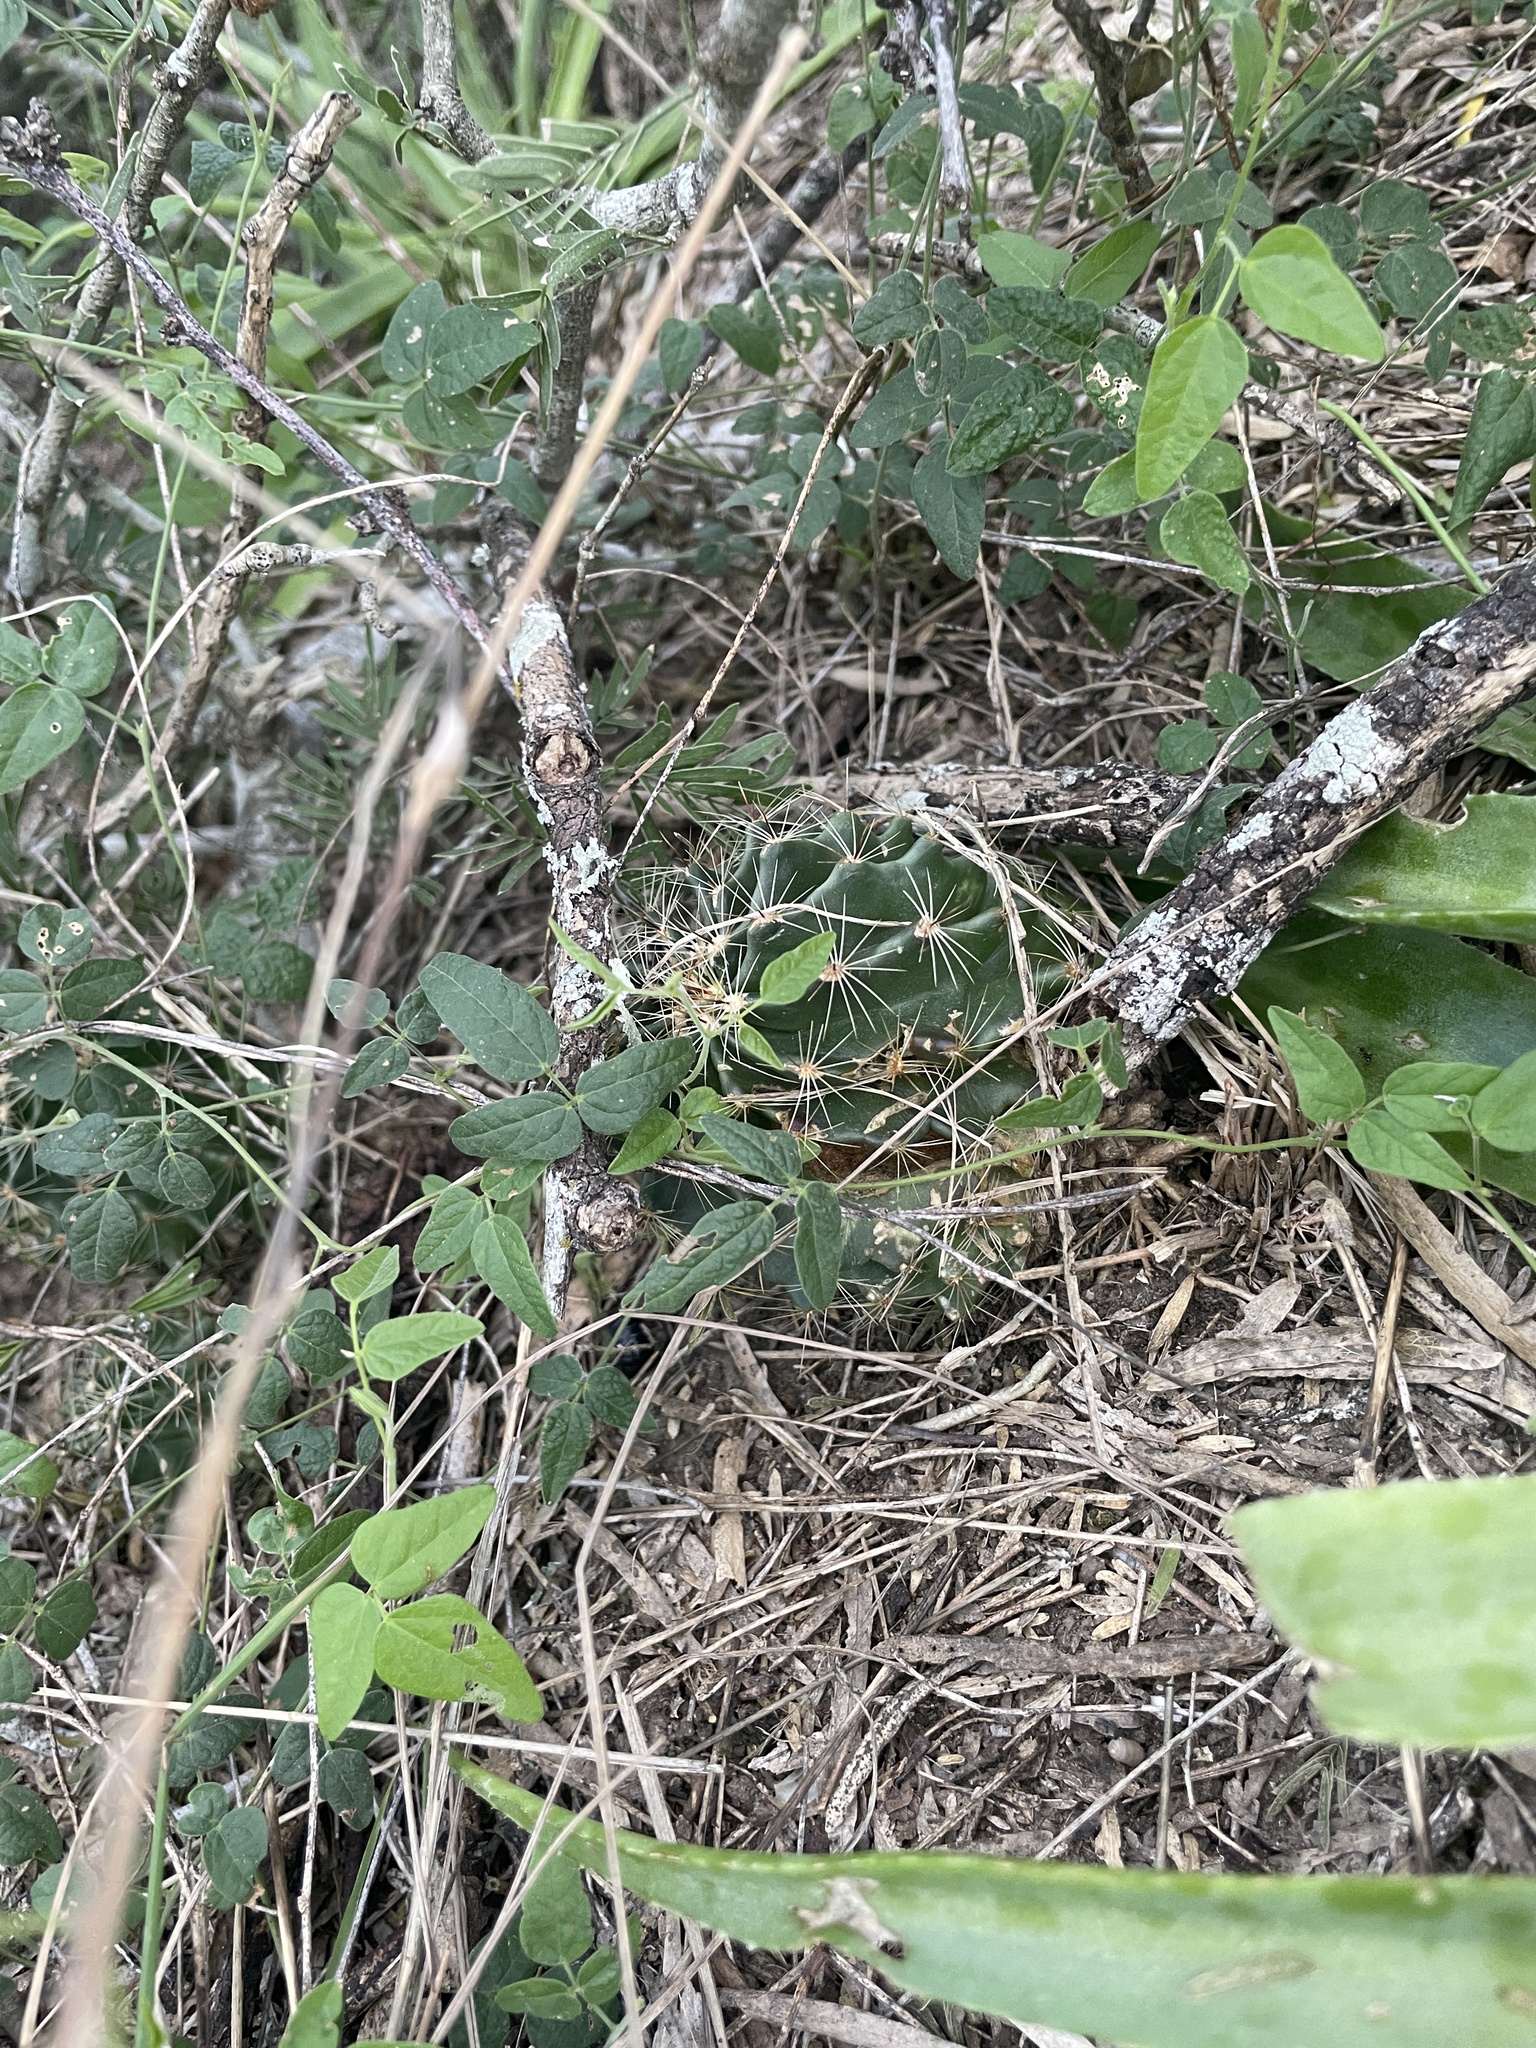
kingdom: Plantae
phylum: Tracheophyta
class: Magnoliopsida
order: Caryophyllales
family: Cactaceae
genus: Thelocactus
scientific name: Thelocactus setispinus
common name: Miniature barrel cactus
